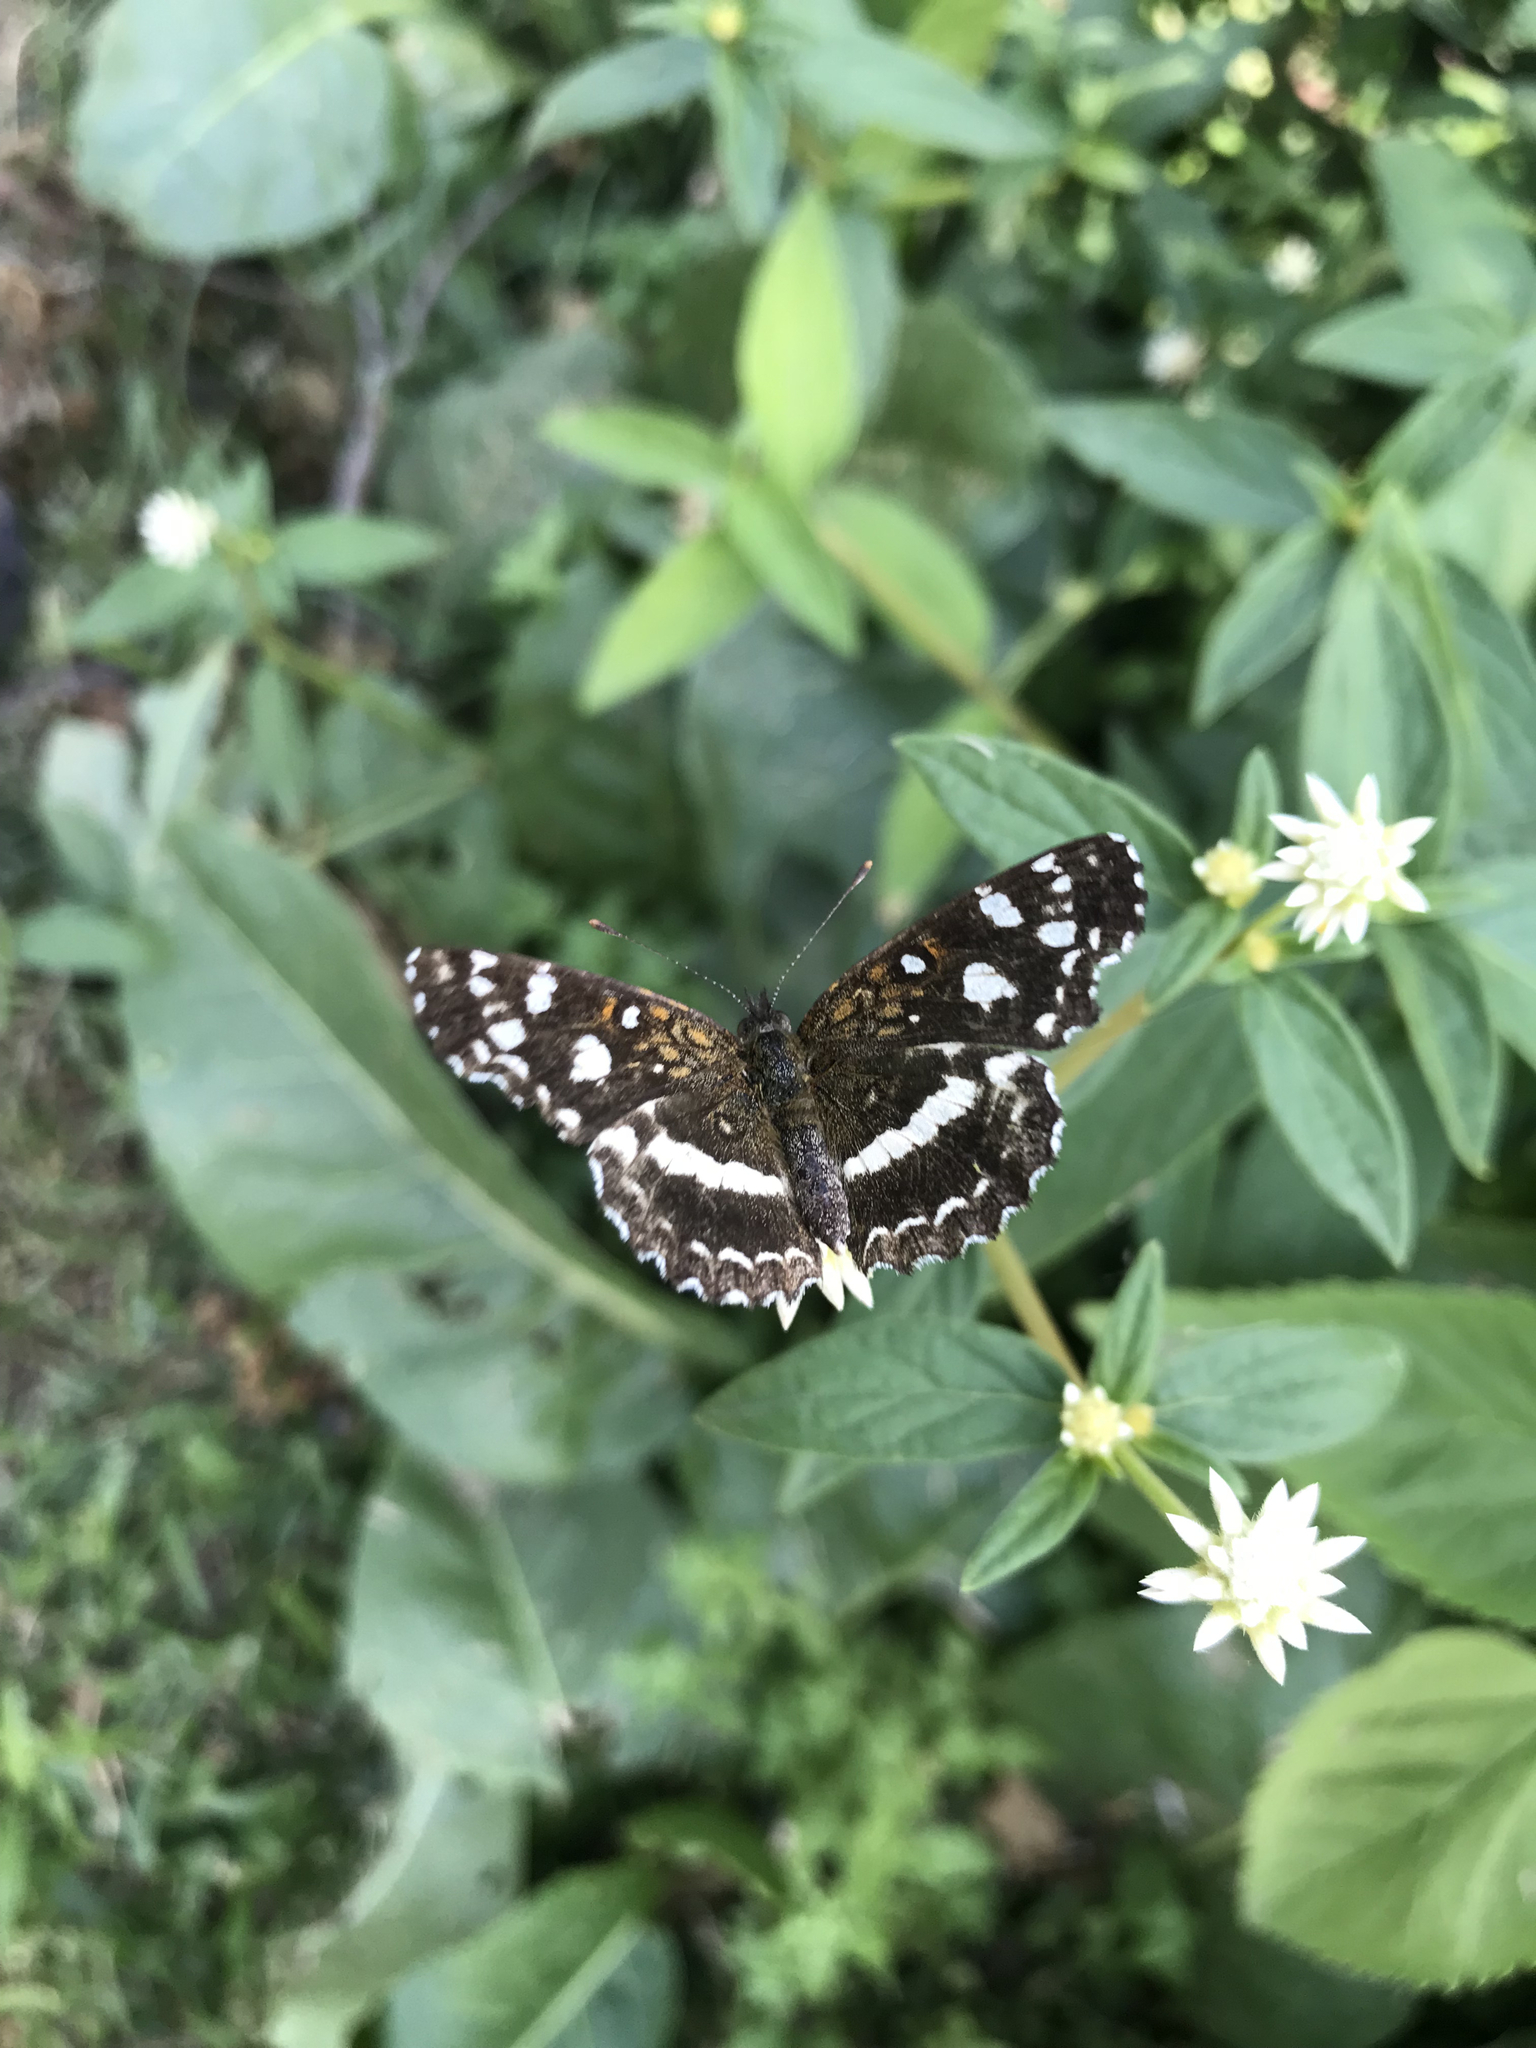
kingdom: Animalia
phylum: Arthropoda
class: Insecta
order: Lepidoptera
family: Nymphalidae
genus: Ortilia
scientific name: Ortilia ithra
